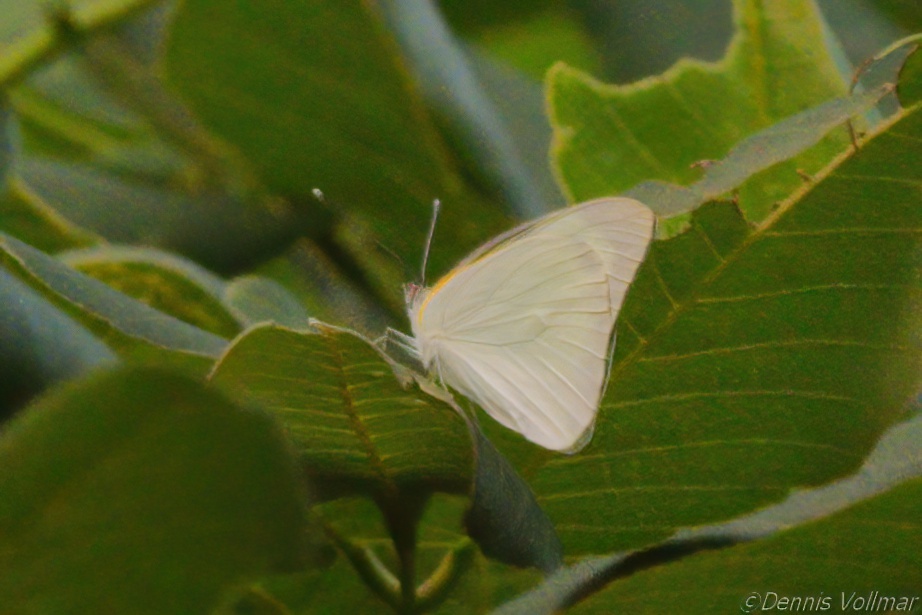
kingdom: Animalia
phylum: Arthropoda
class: Insecta
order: Lepidoptera
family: Pieridae
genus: Glutophrissa
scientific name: Glutophrissa drusilla
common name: Florida white
